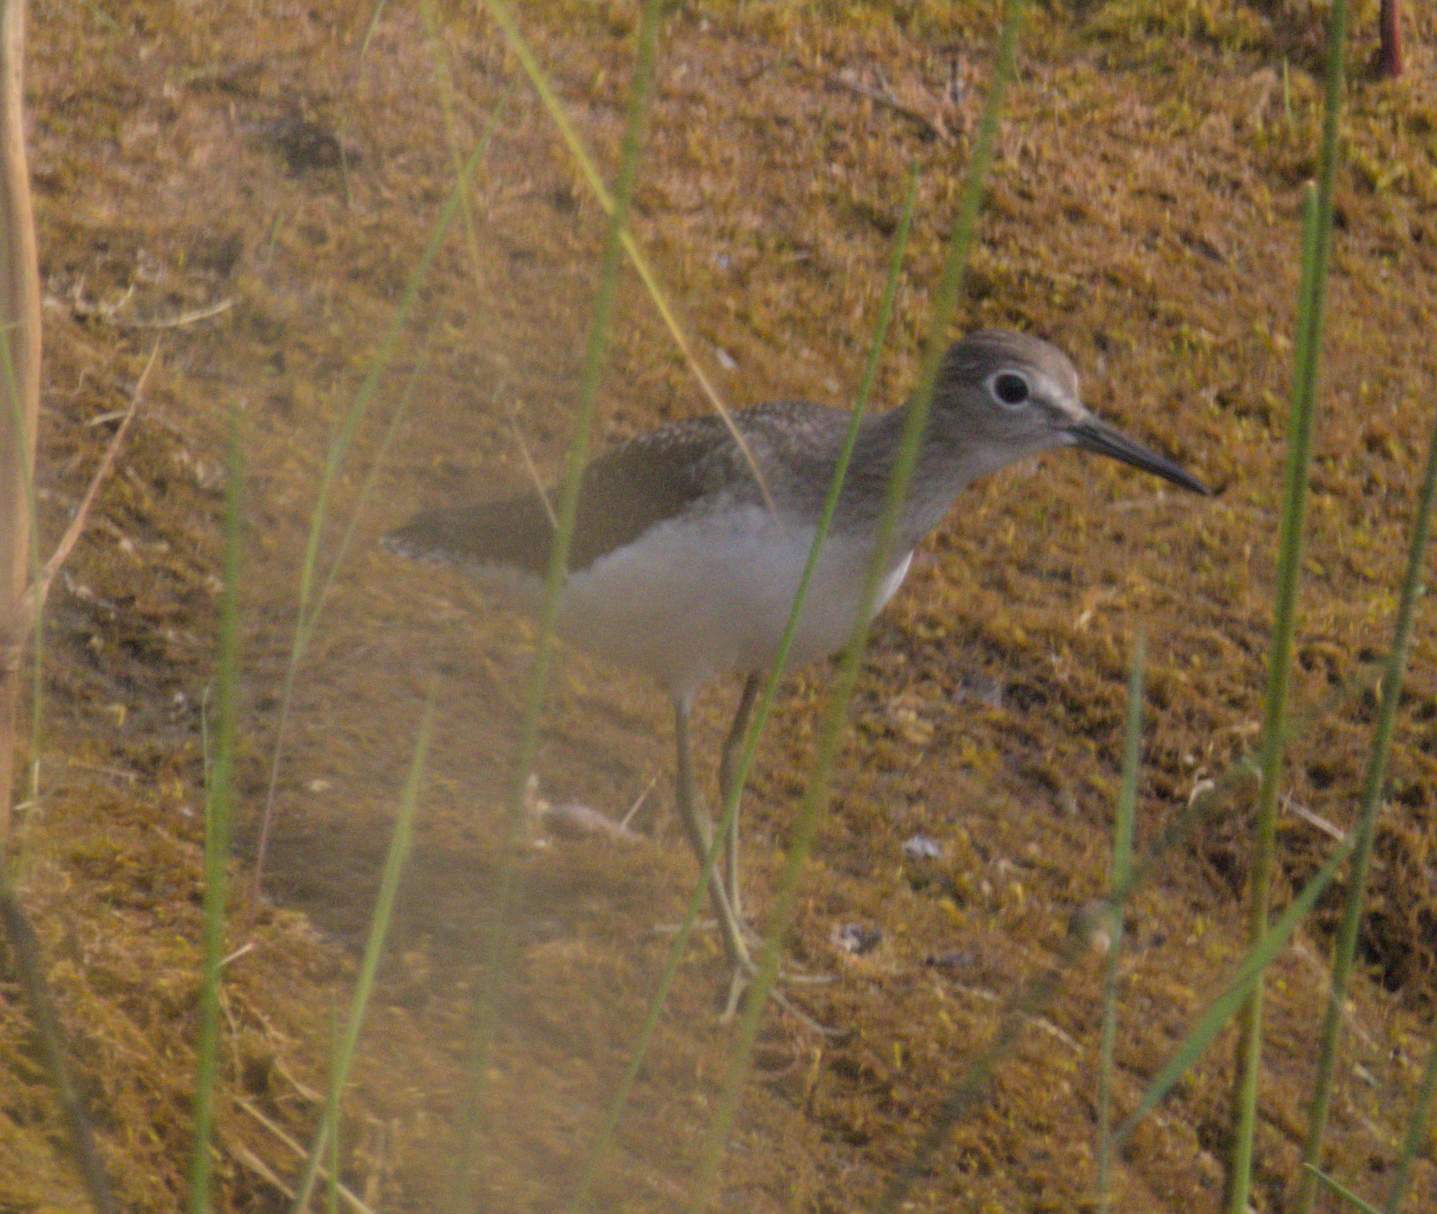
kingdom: Animalia
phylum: Chordata
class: Aves
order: Charadriiformes
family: Scolopacidae
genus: Tringa
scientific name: Tringa solitaria
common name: Solitary sandpiper
